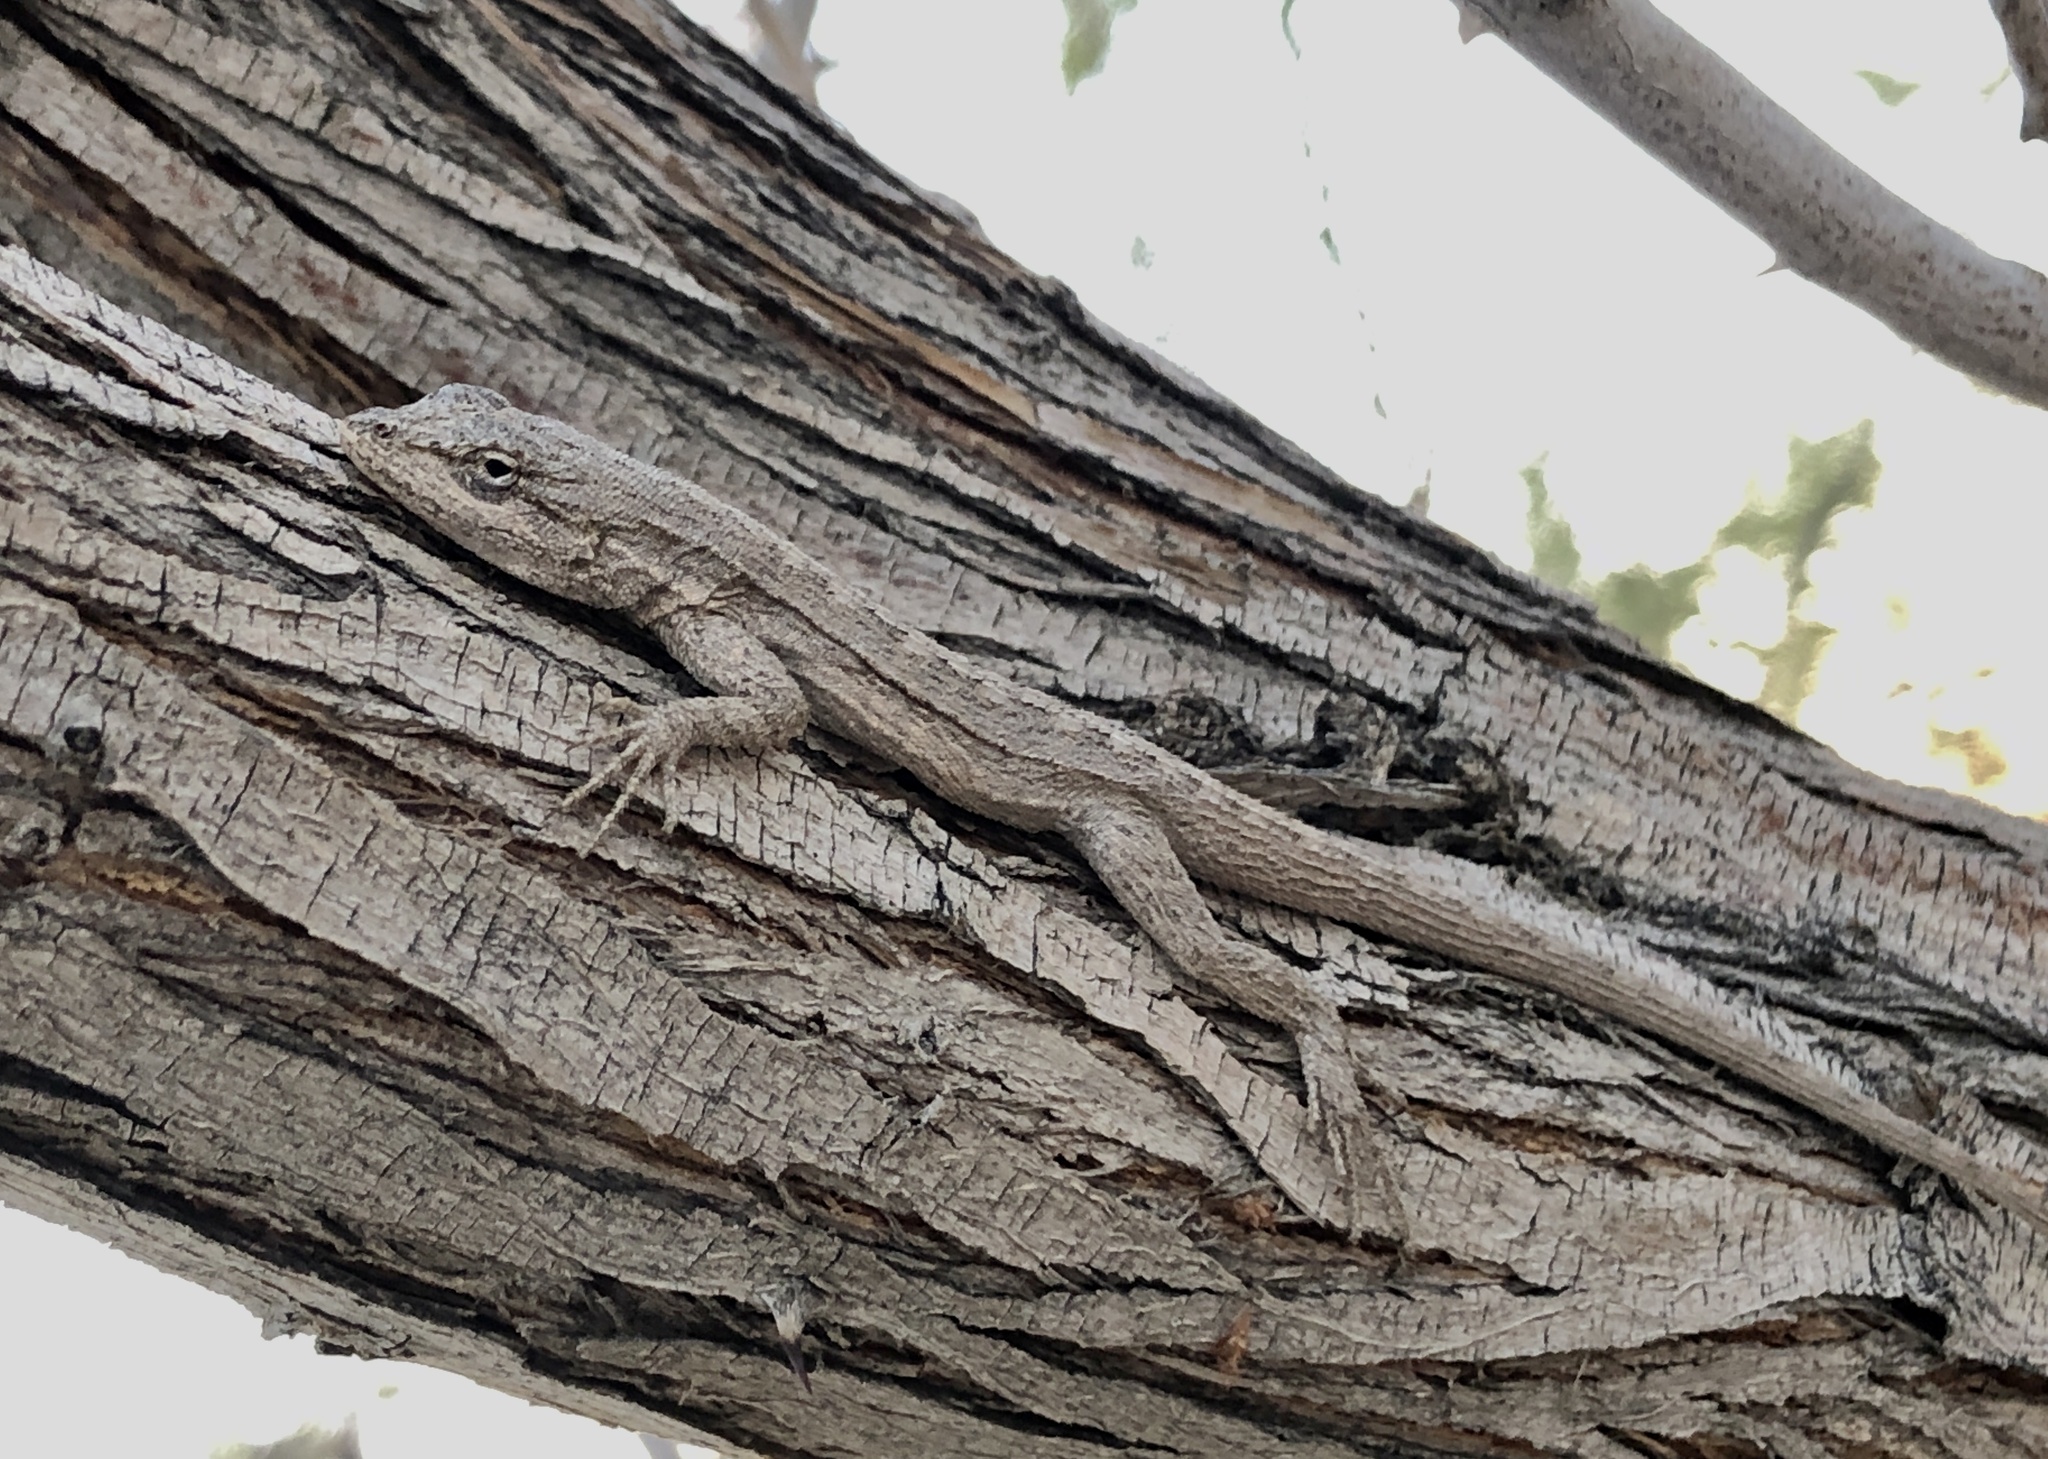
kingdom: Animalia
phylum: Chordata
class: Squamata
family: Phrynosomatidae
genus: Urosaurus
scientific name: Urosaurus graciosus
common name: Long-tailed brush lizard
